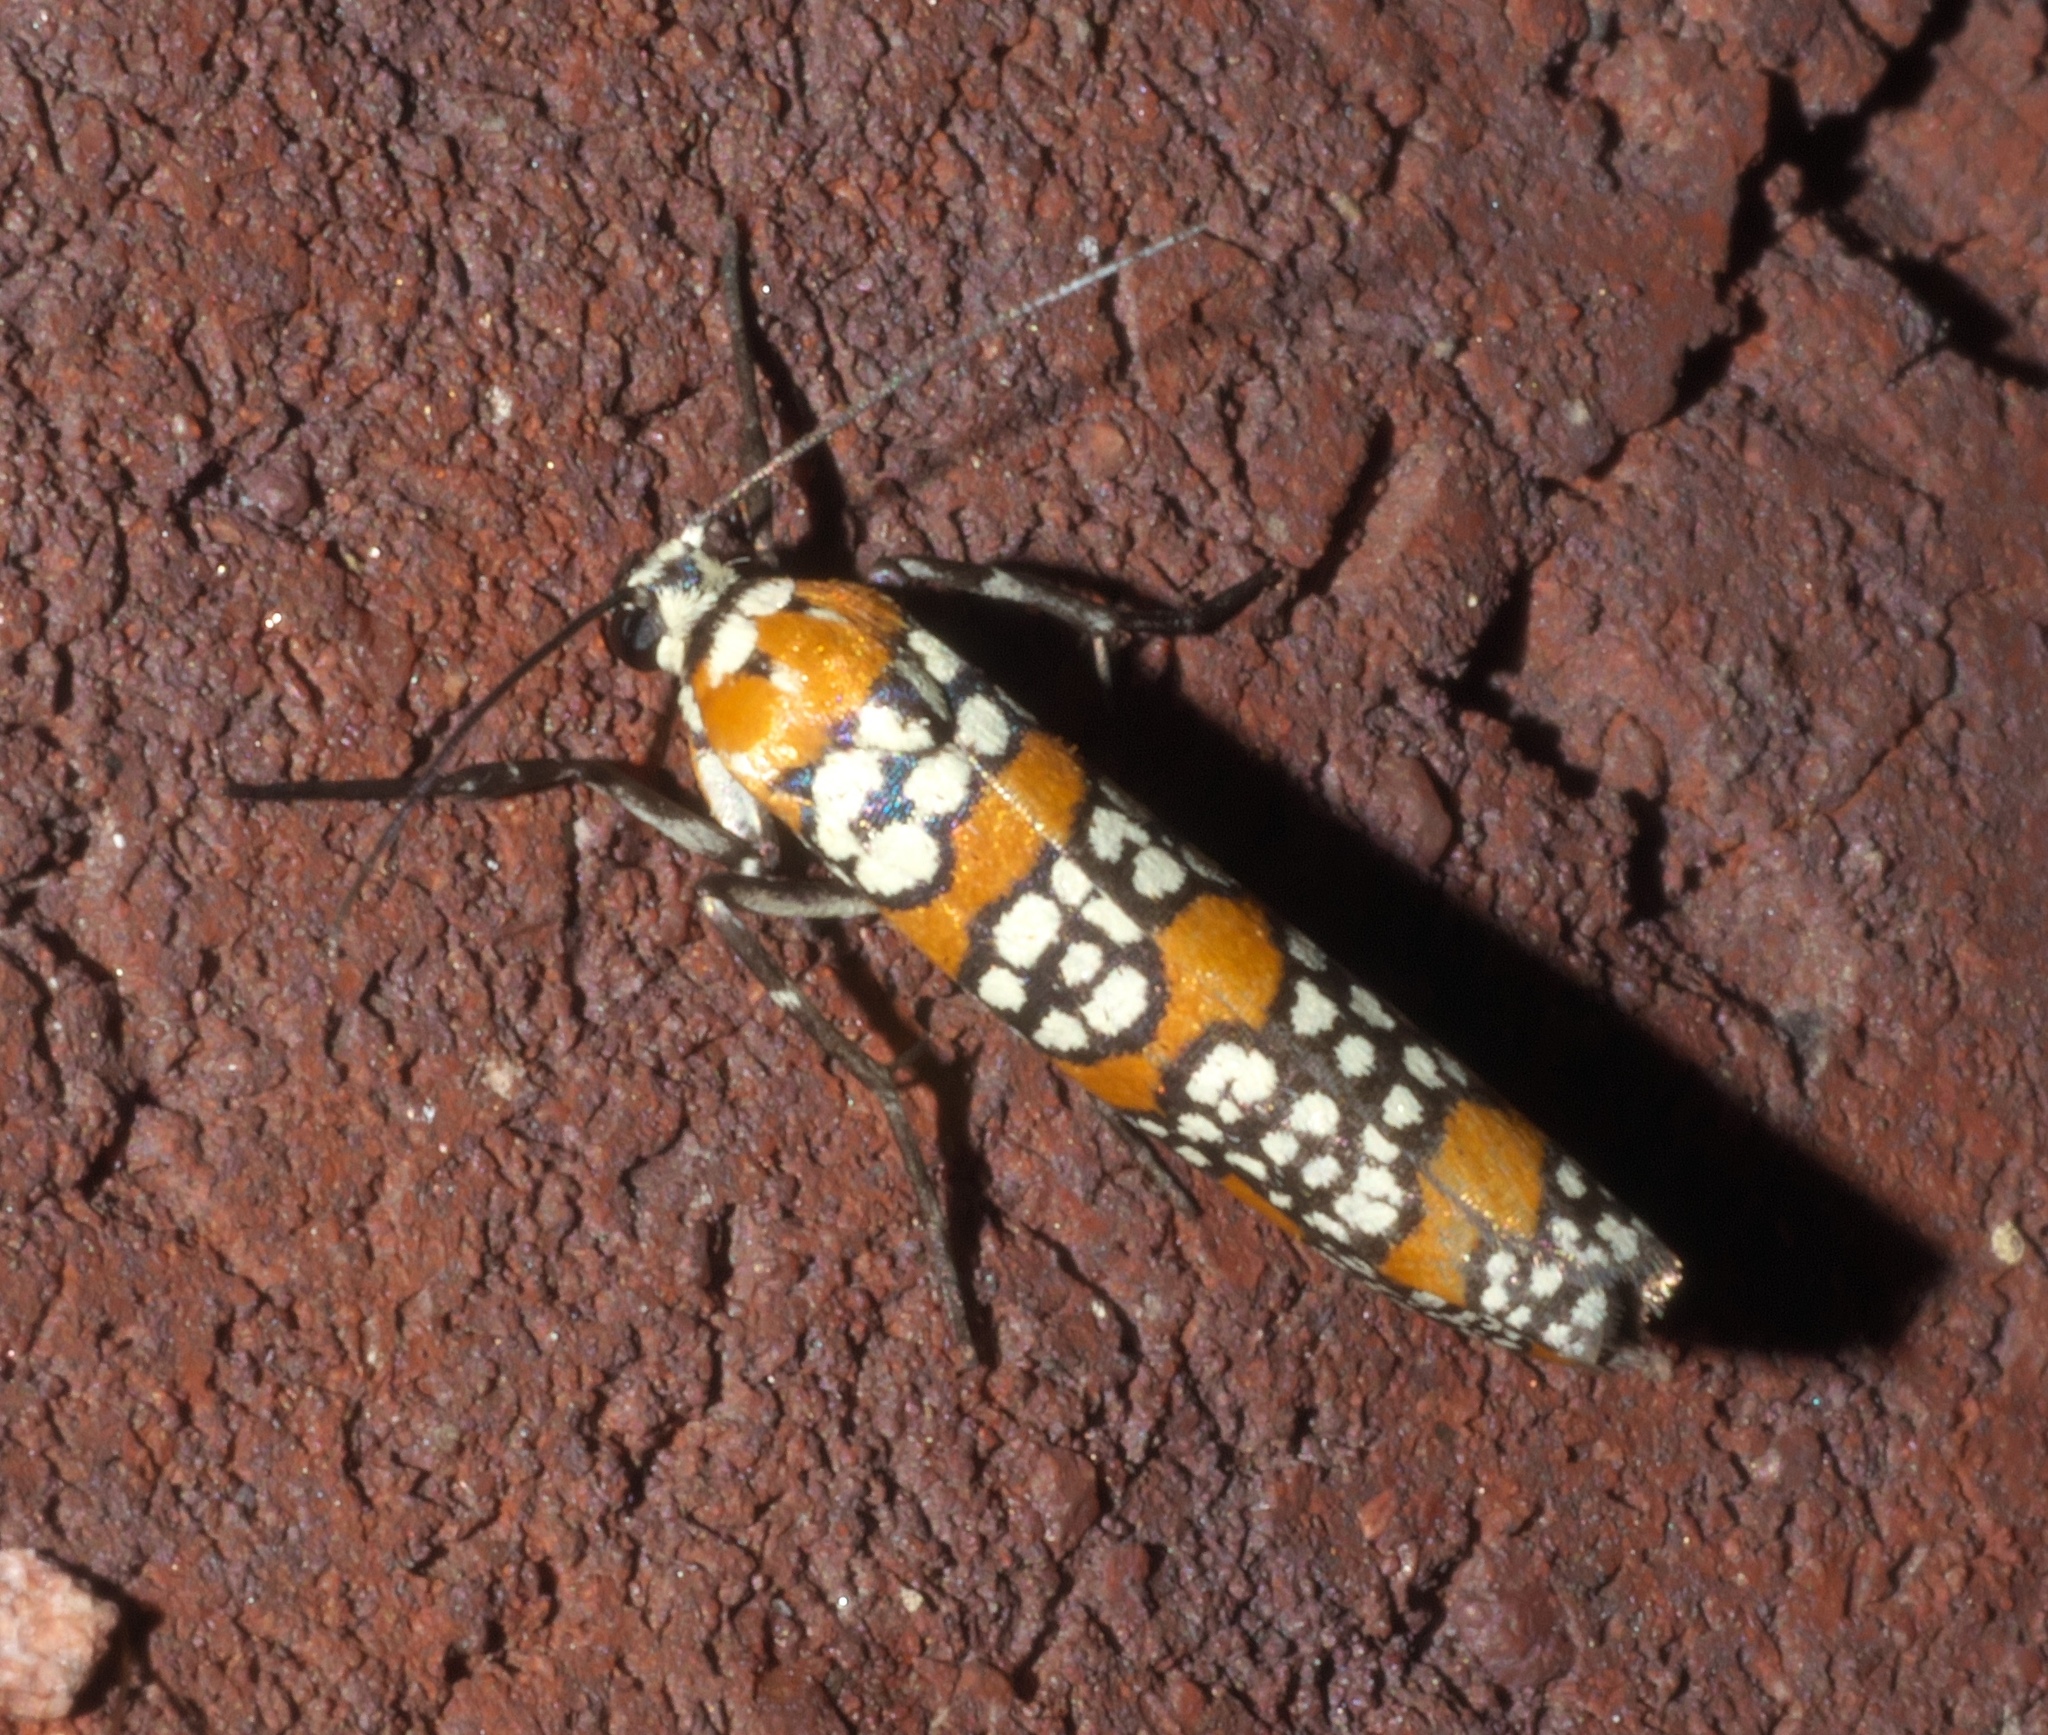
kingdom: Animalia
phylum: Arthropoda
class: Insecta
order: Lepidoptera
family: Attevidae
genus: Atteva
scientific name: Atteva punctella
